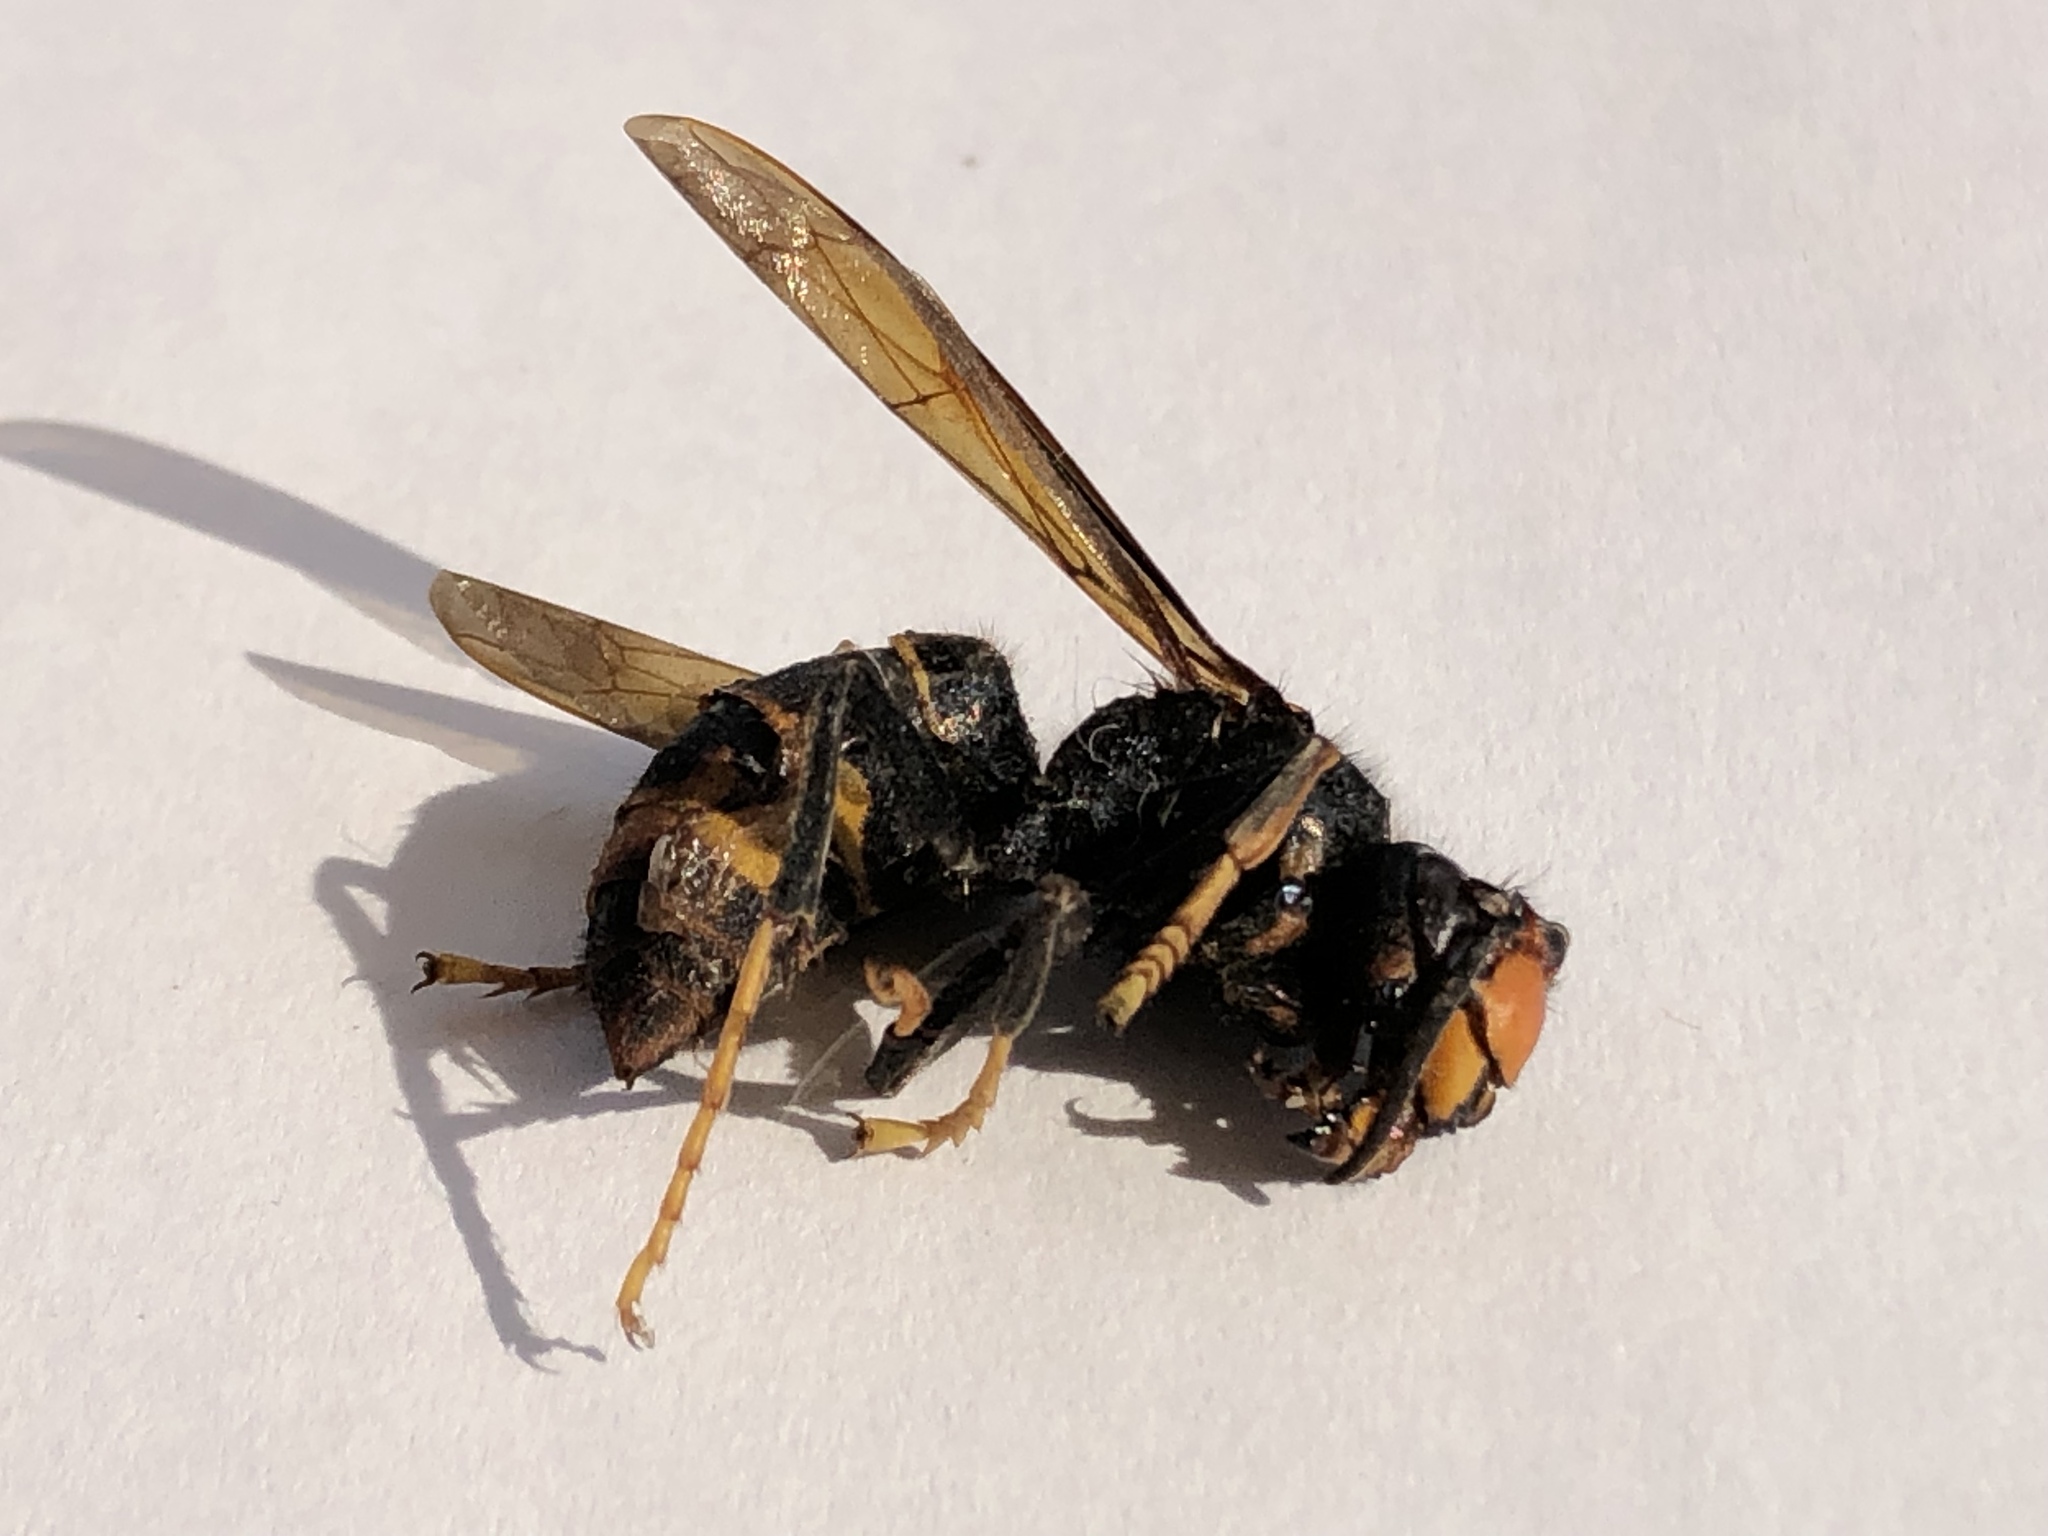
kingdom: Animalia
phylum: Arthropoda
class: Insecta
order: Hymenoptera
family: Vespidae
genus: Vespa
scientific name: Vespa velutina
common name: Asian hornet
